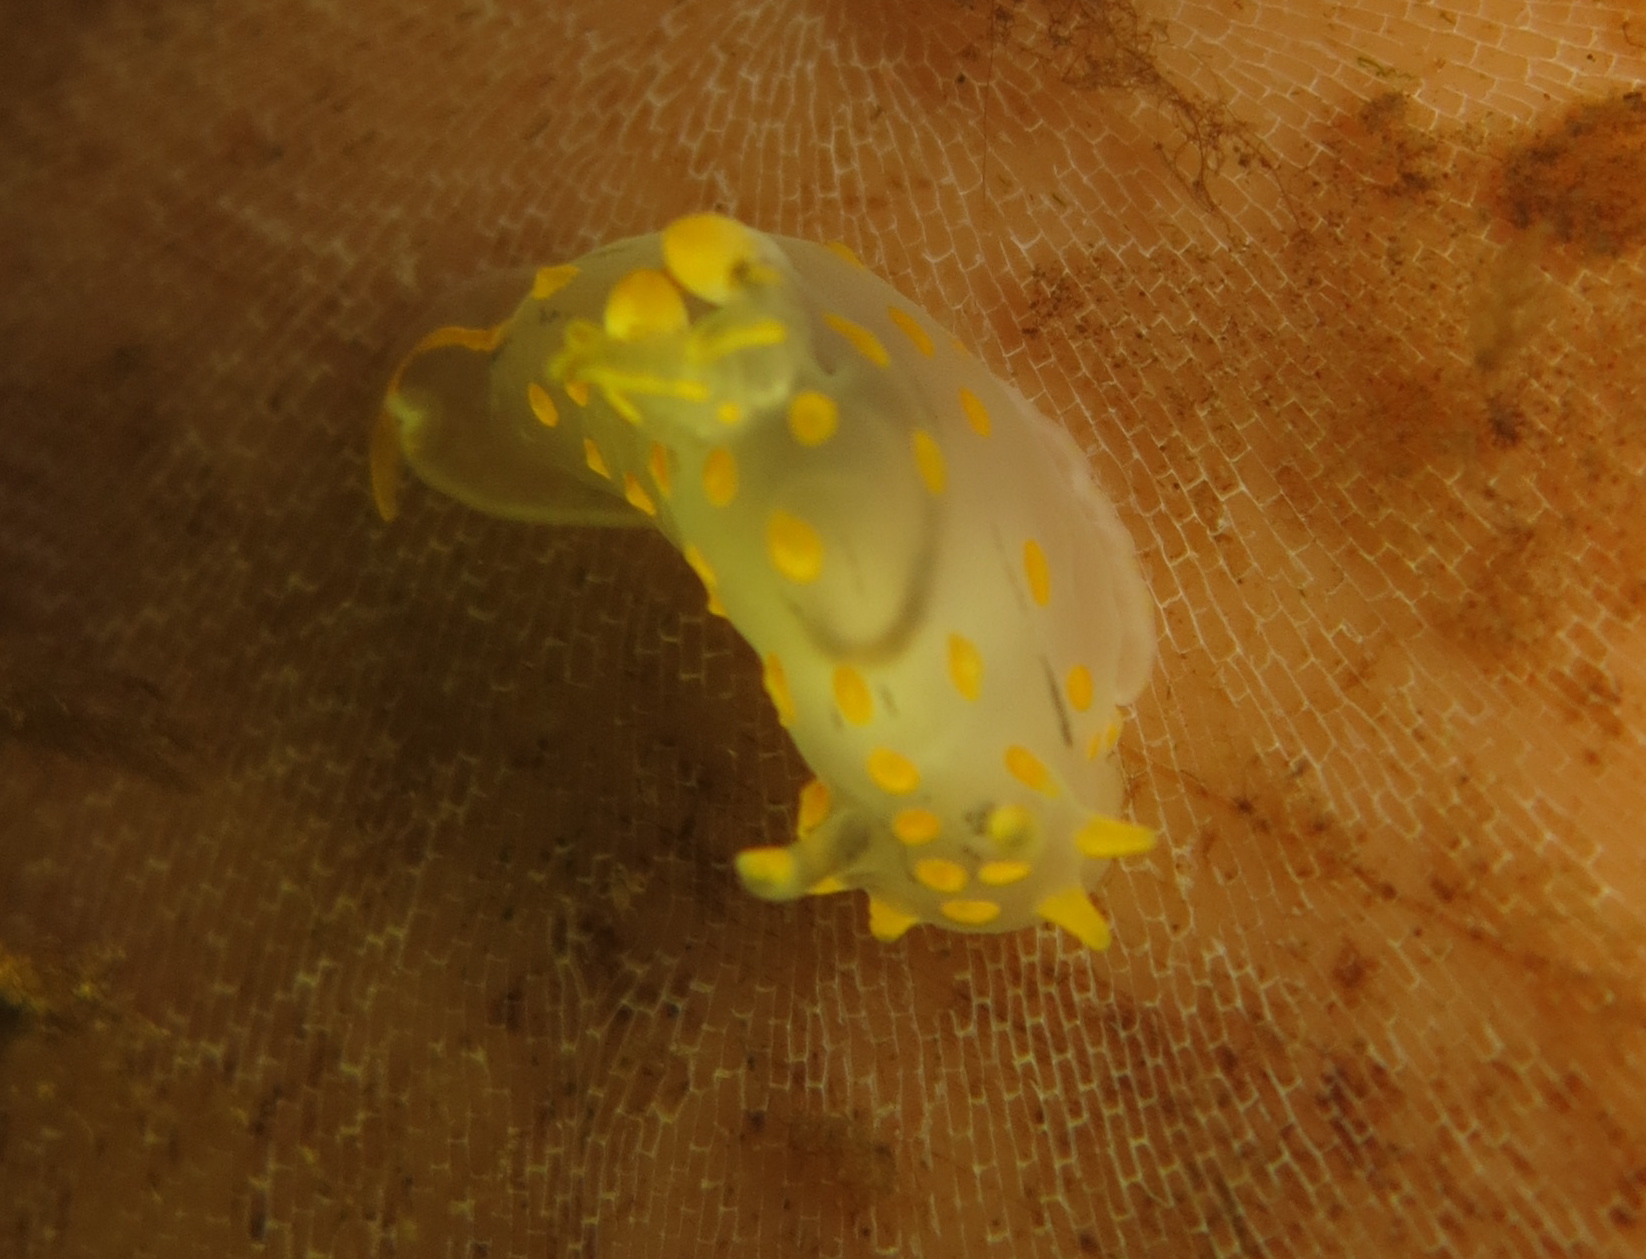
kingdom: Animalia
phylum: Mollusca
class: Gastropoda
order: Nudibranchia
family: Polyceridae
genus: Polycera
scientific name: Polycera quadrilineata
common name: Four-striped polycera
